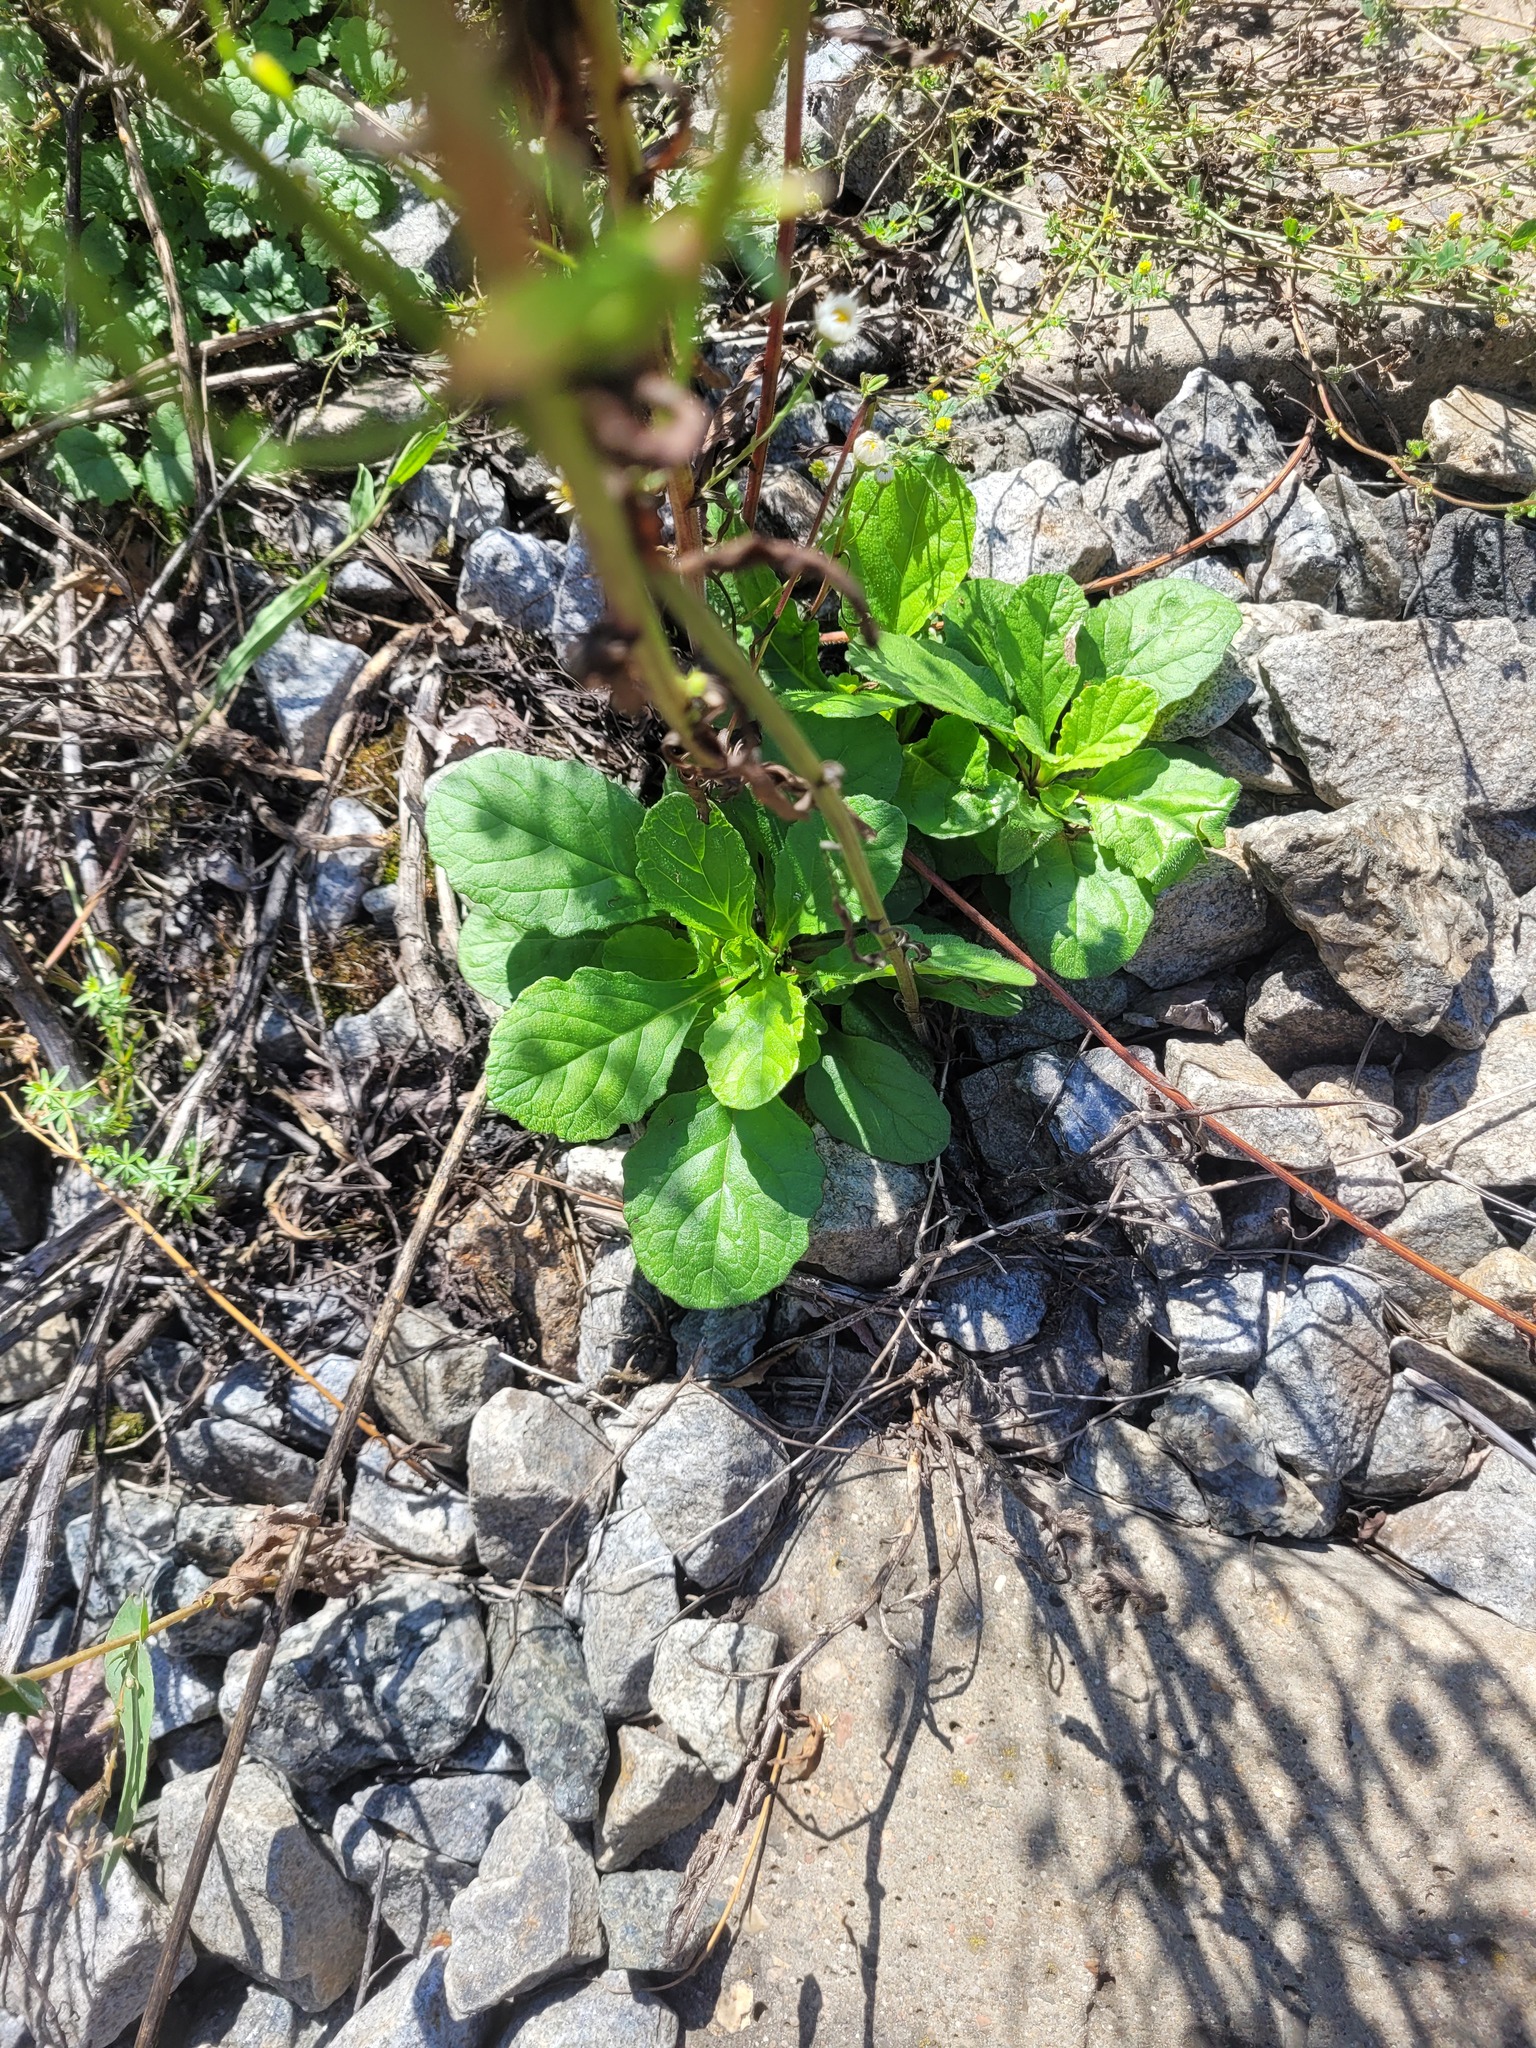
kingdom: Plantae
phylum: Tracheophyta
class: Magnoliopsida
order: Lamiales
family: Lamiaceae
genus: Ajuga
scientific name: Ajuga reptans
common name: Bugle
